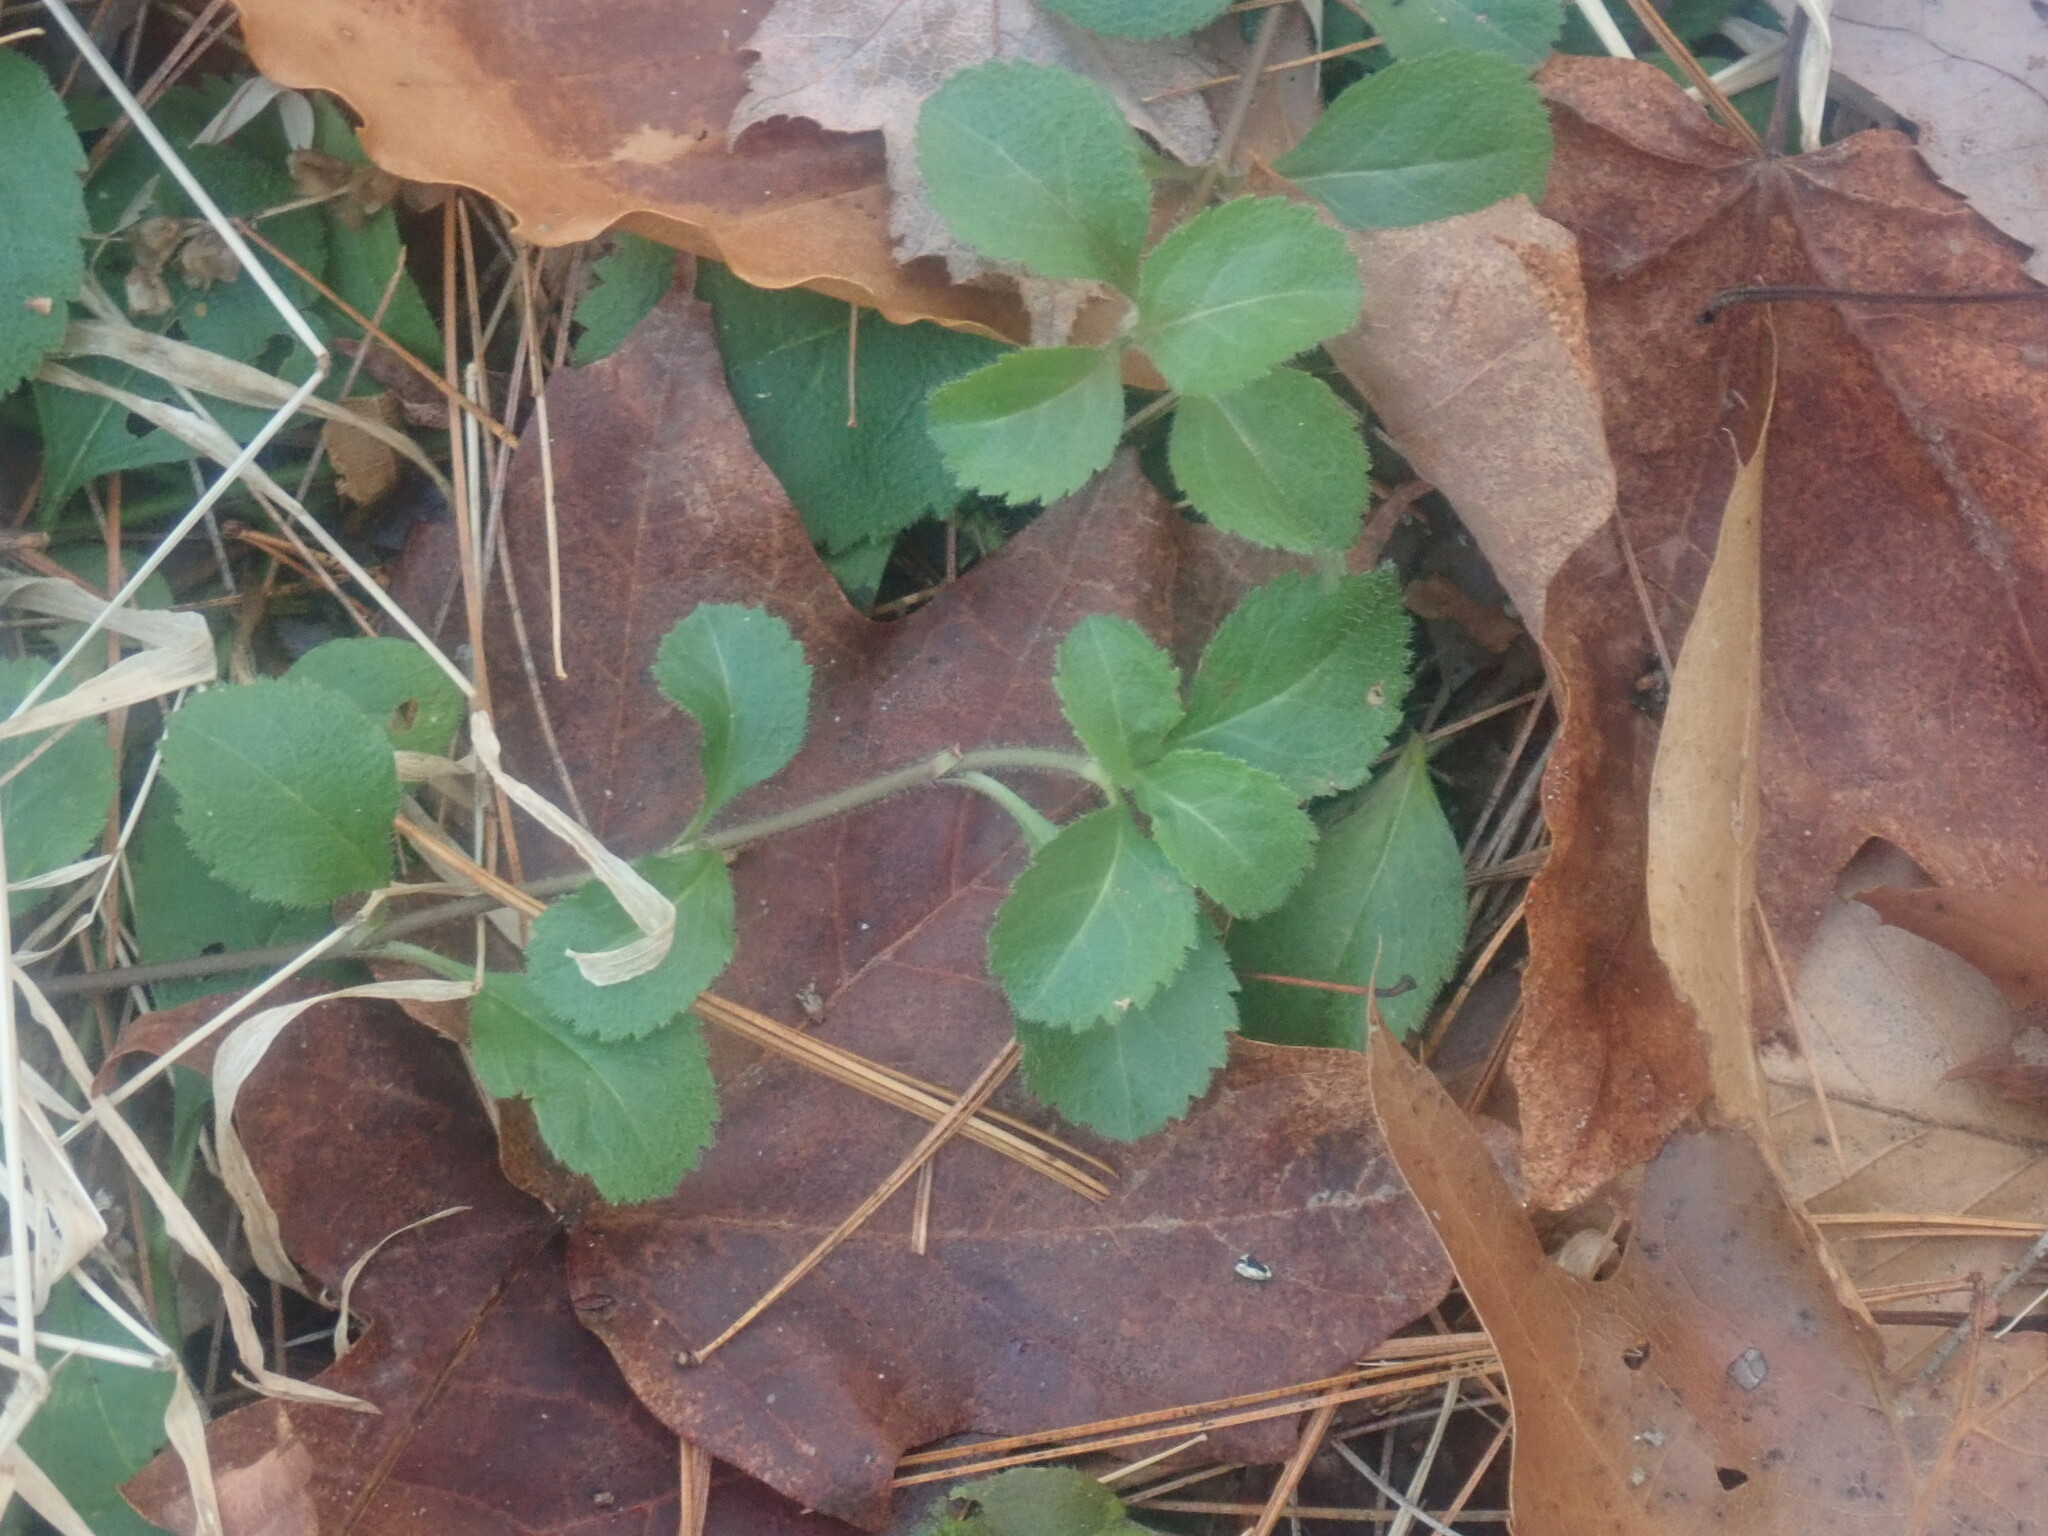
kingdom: Plantae
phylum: Tracheophyta
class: Magnoliopsida
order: Lamiales
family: Plantaginaceae
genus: Veronica
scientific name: Veronica officinalis
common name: Common speedwell
